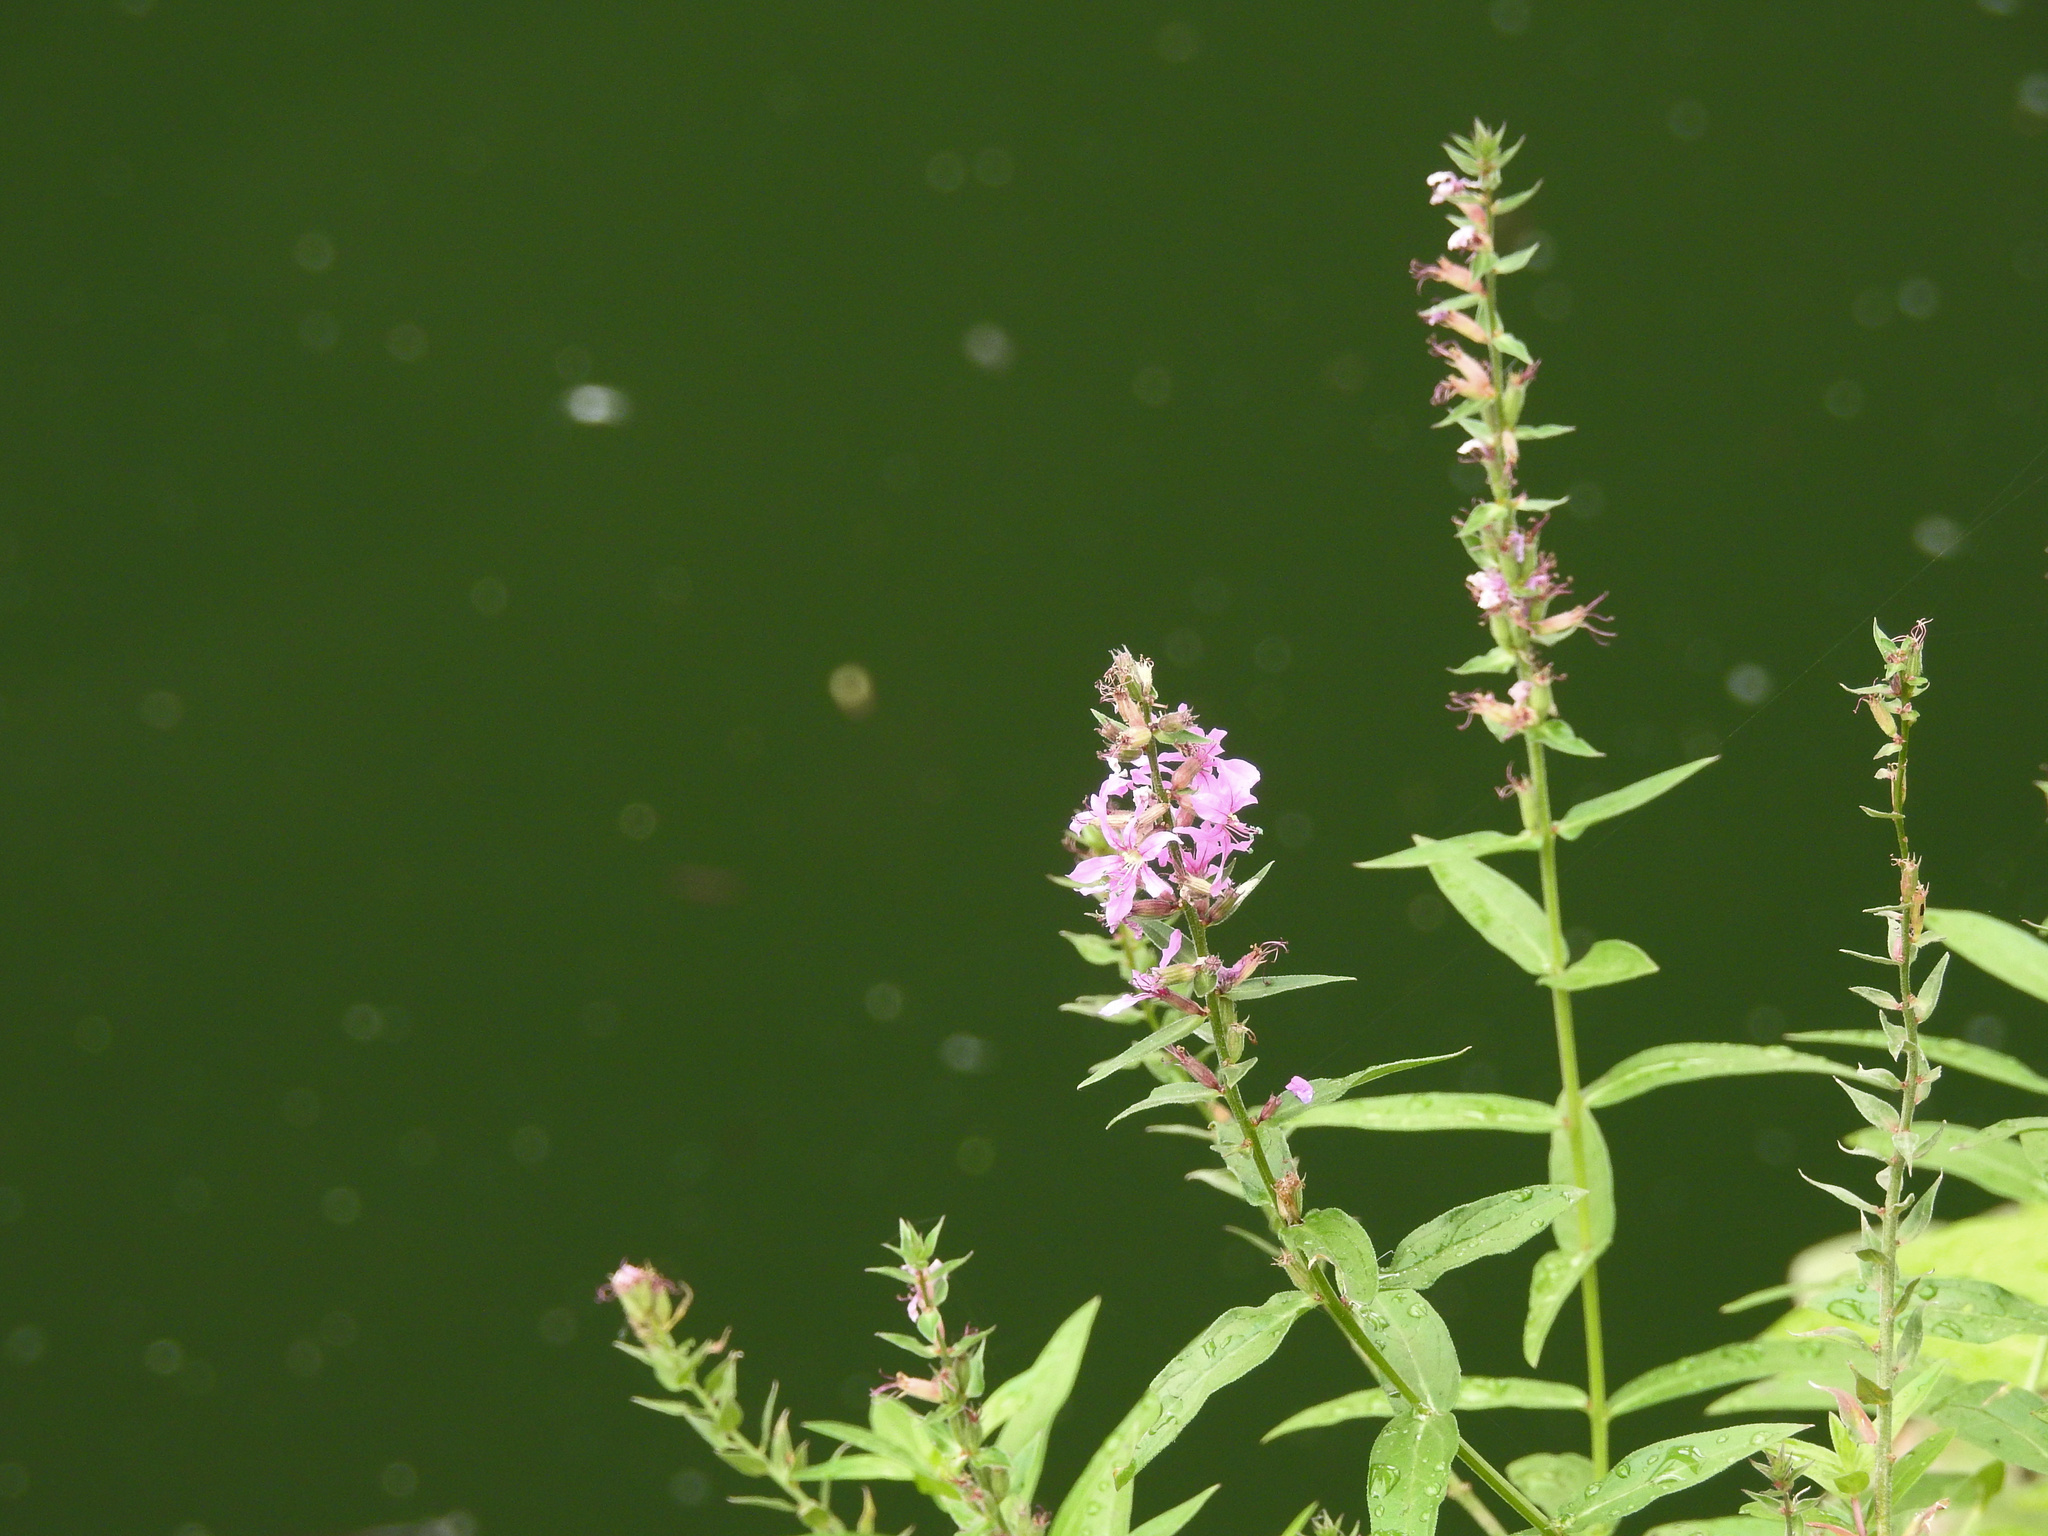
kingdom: Plantae
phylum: Tracheophyta
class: Magnoliopsida
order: Myrtales
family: Lythraceae
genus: Lythrum
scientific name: Lythrum salicaria
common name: Purple loosestrife
